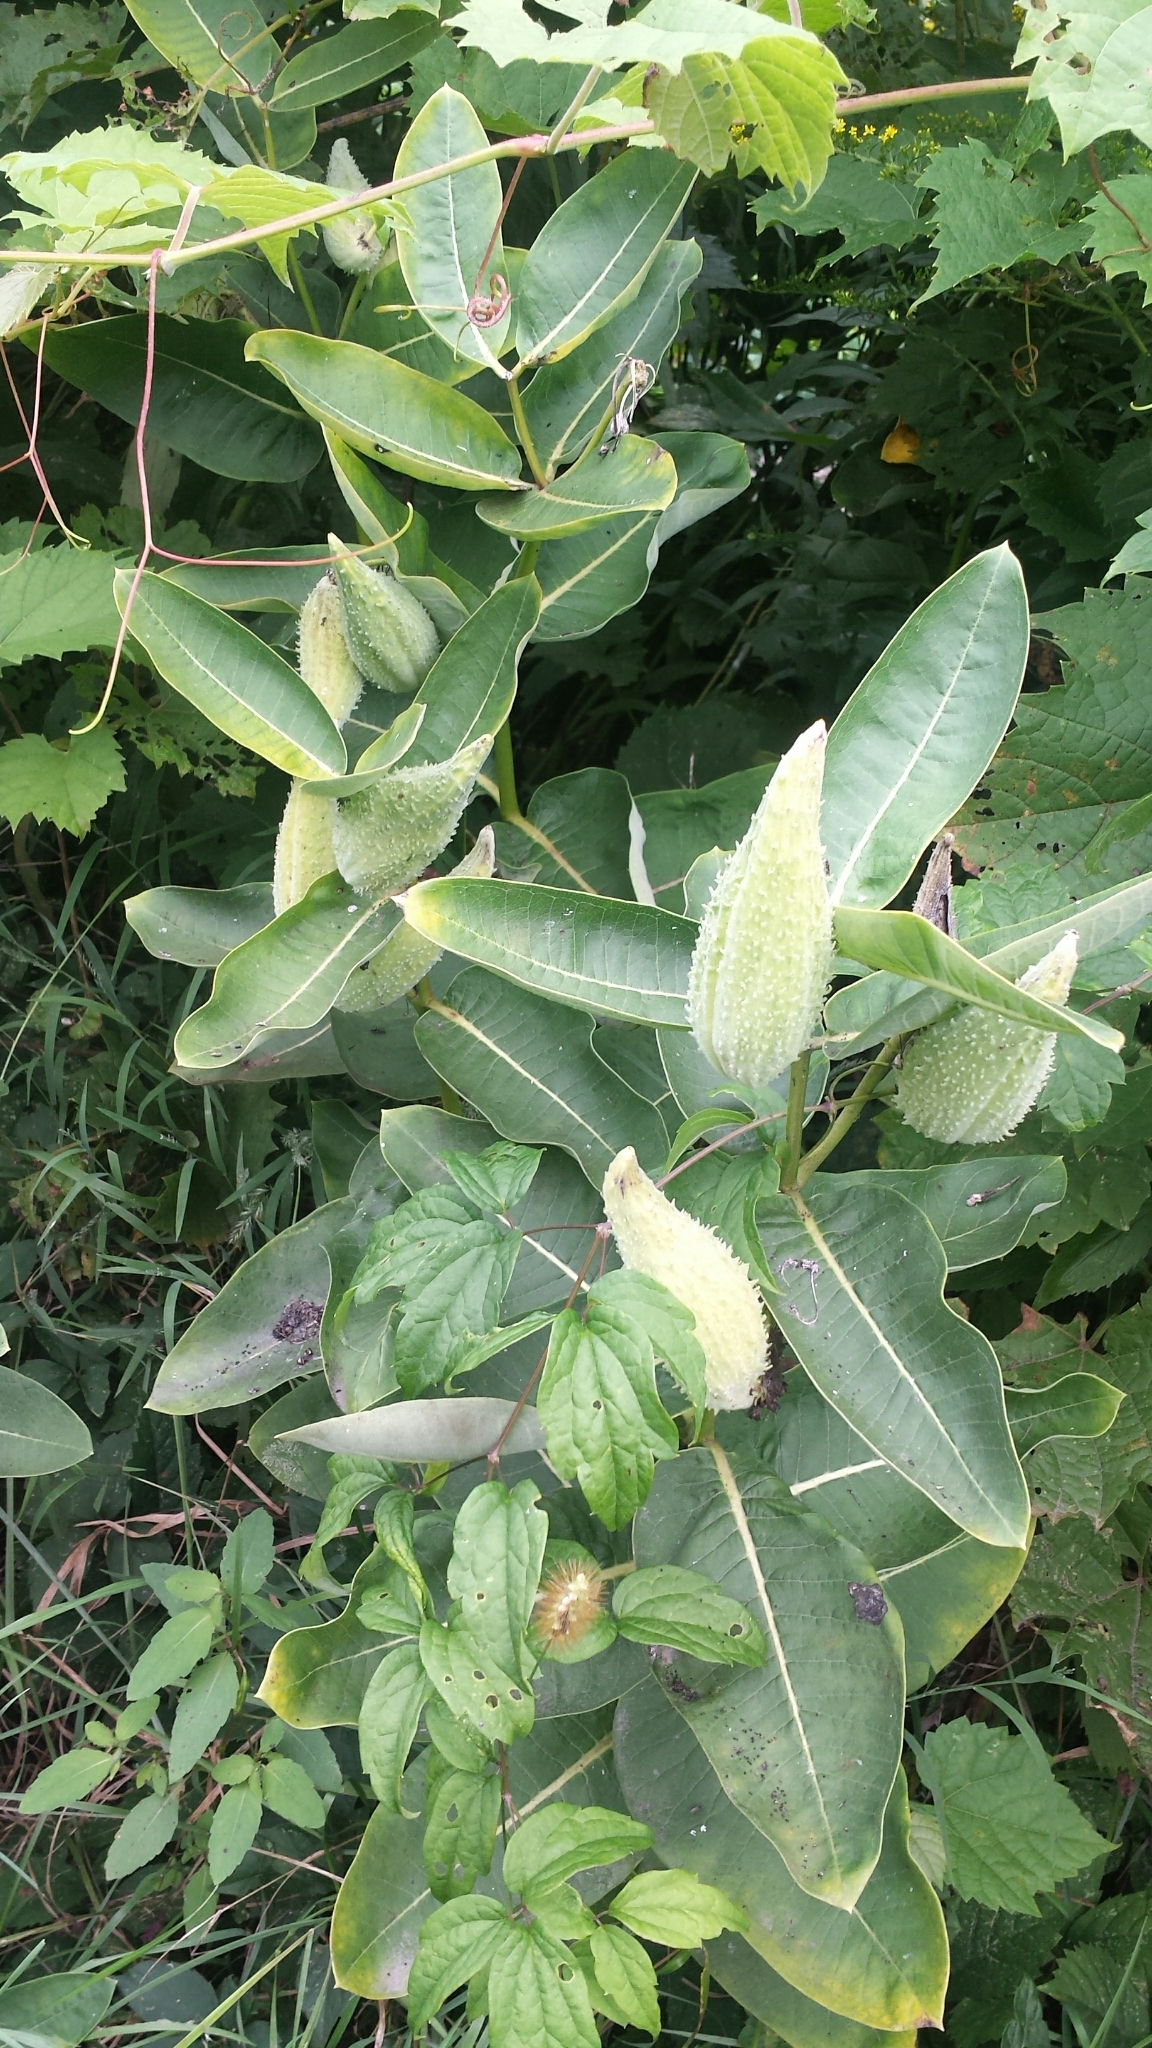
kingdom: Plantae
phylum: Tracheophyta
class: Magnoliopsida
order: Gentianales
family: Apocynaceae
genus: Asclepias
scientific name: Asclepias syriaca
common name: Common milkweed
